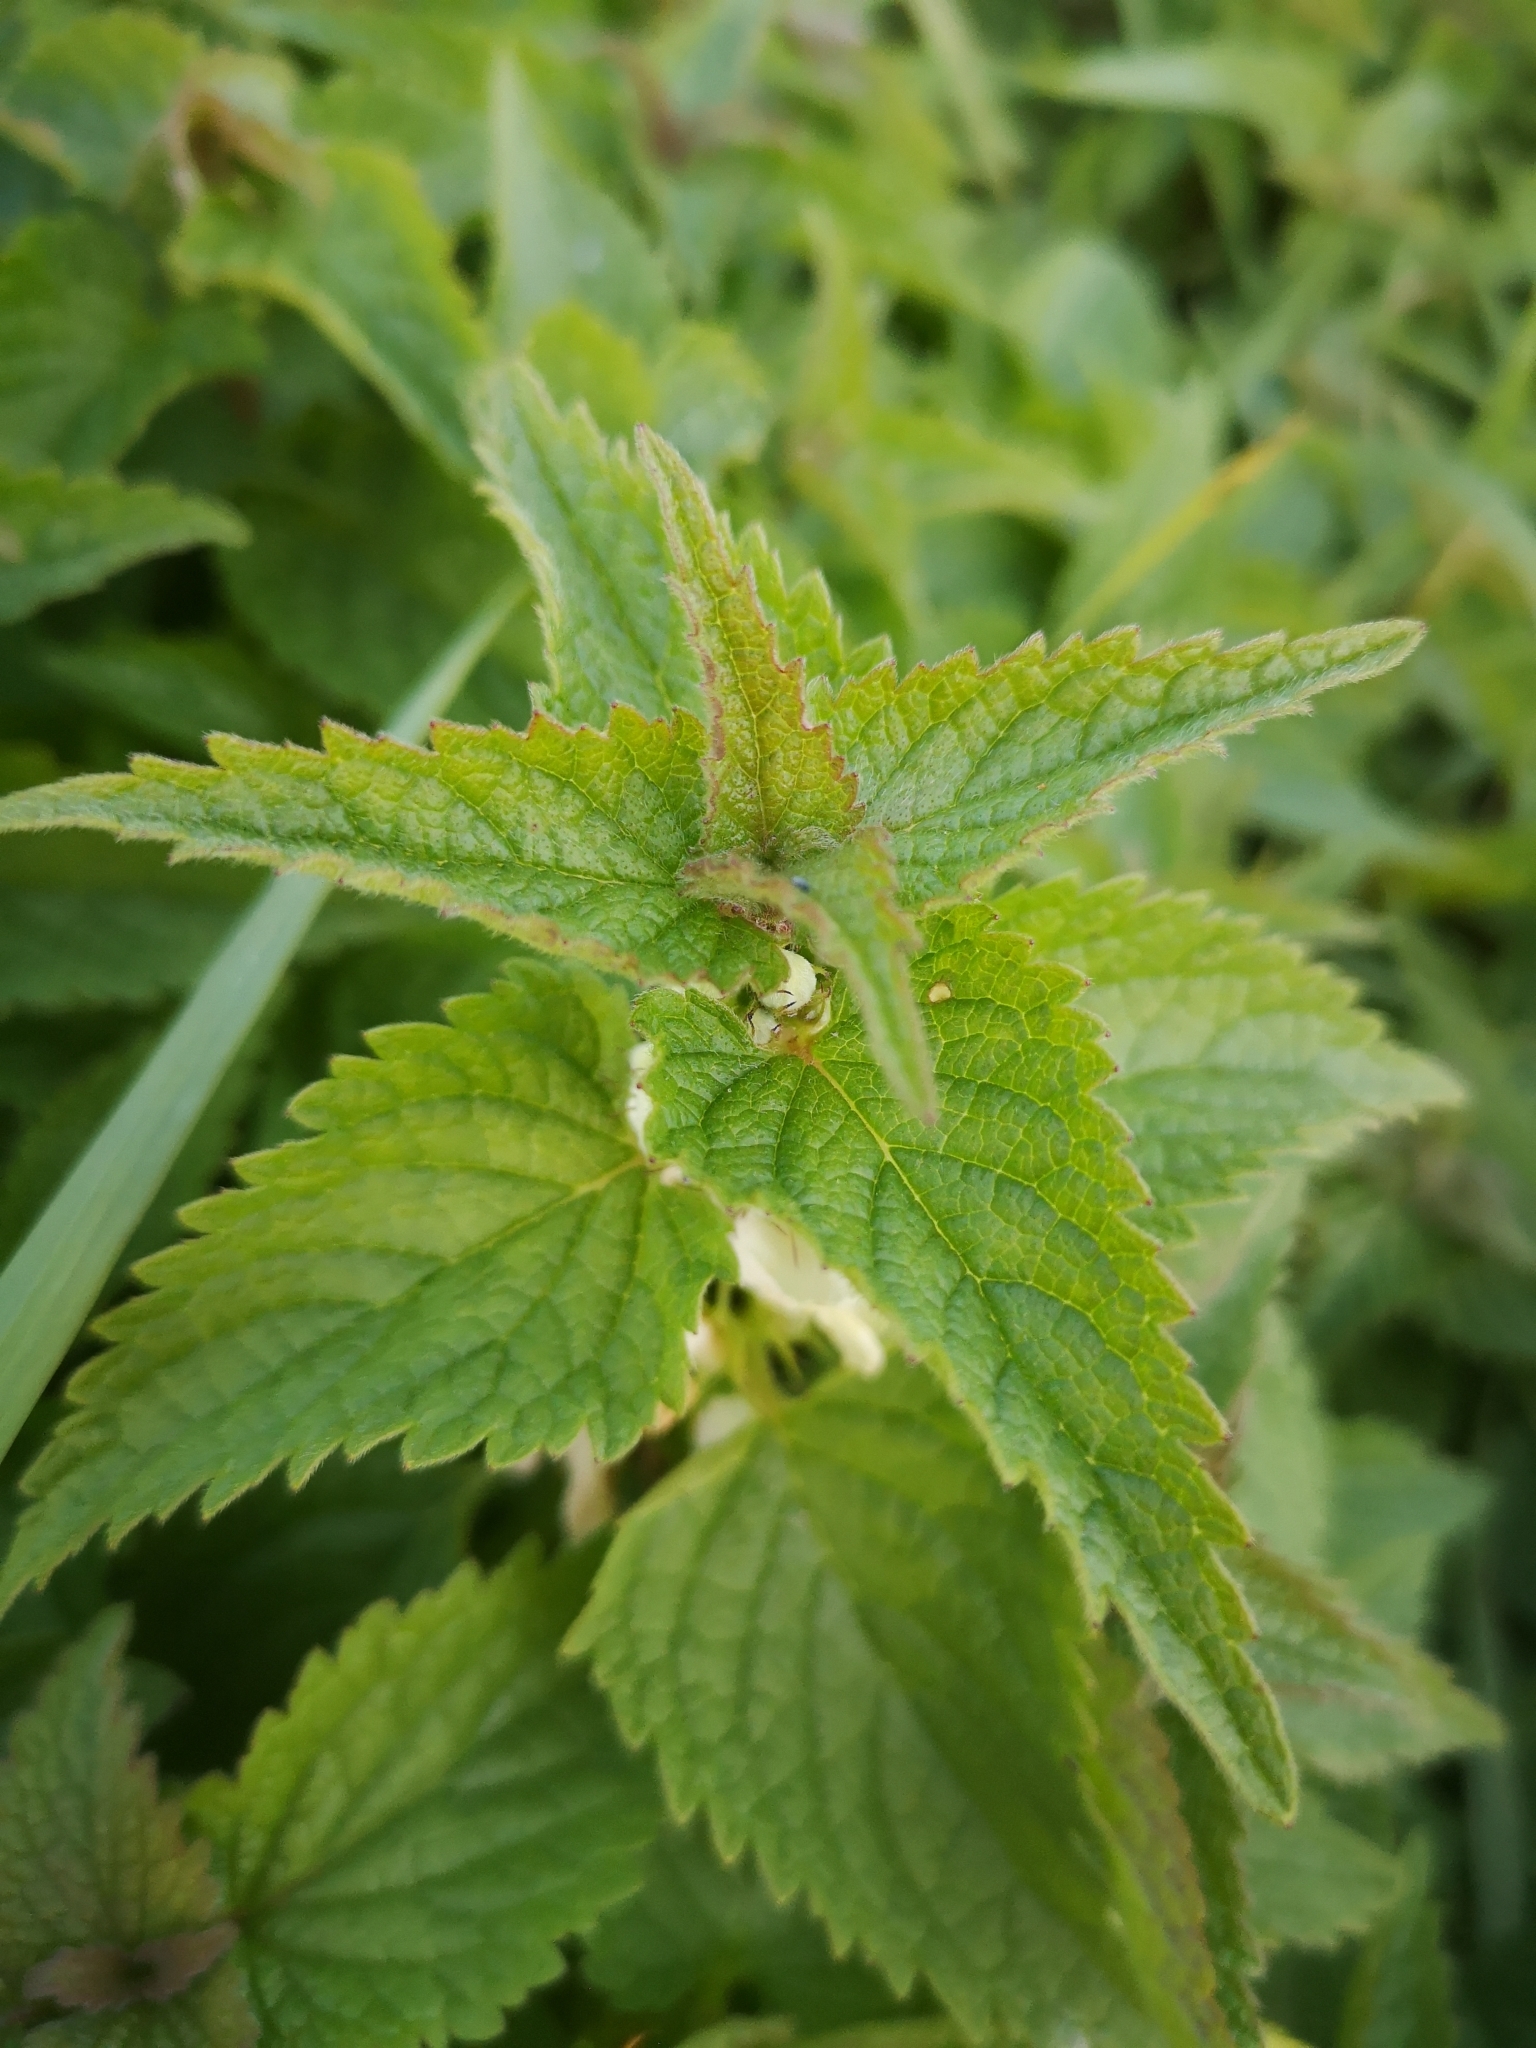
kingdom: Plantae
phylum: Tracheophyta
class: Magnoliopsida
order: Lamiales
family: Lamiaceae
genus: Lamium
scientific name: Lamium album
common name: White dead-nettle
